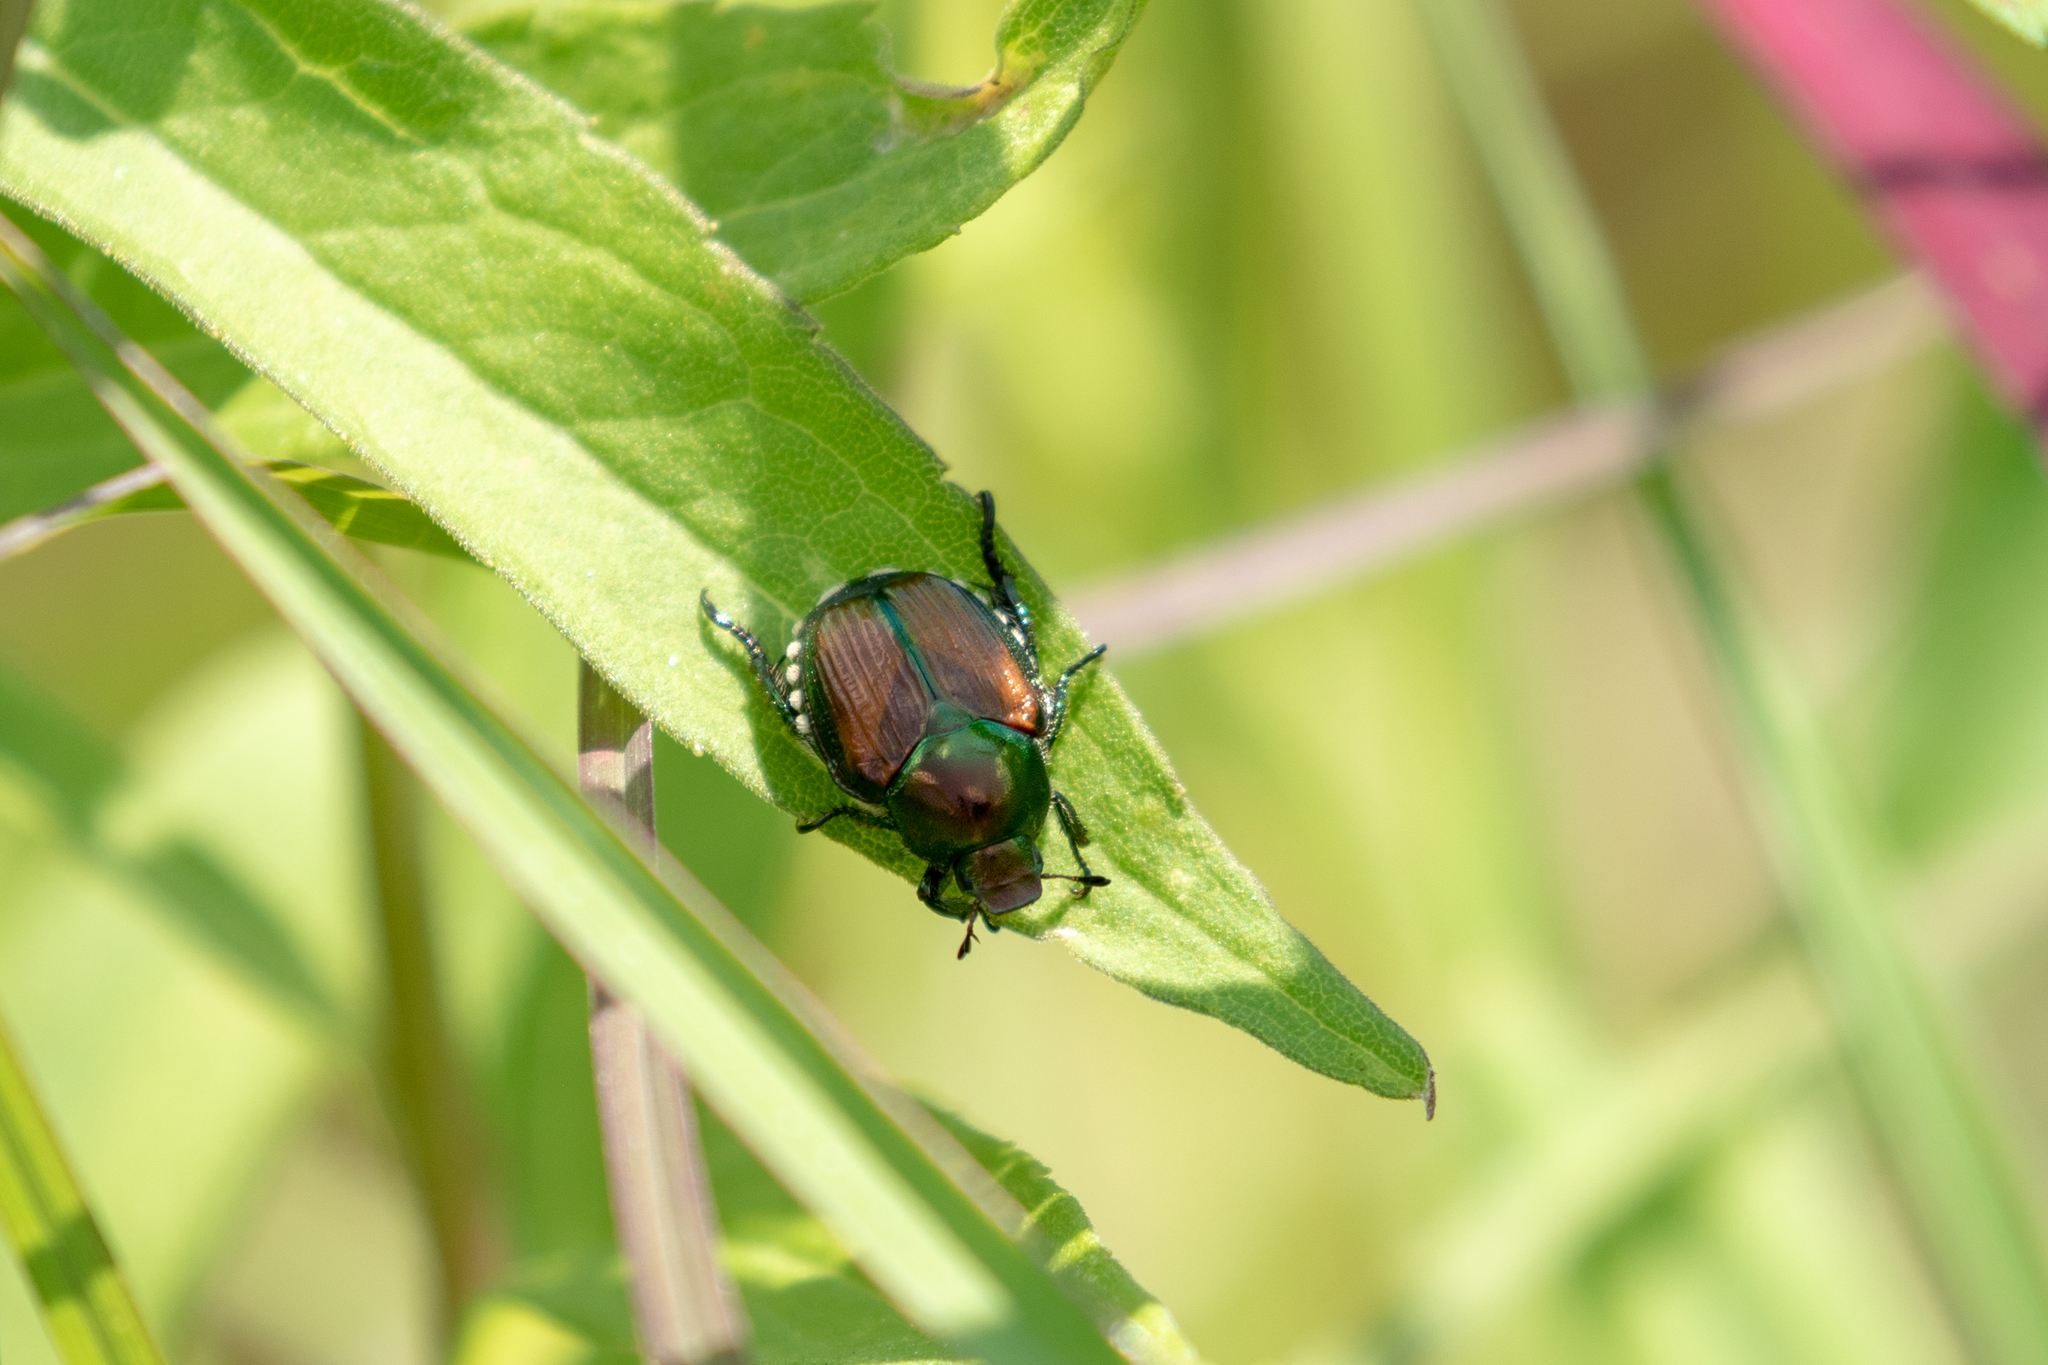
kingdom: Animalia
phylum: Arthropoda
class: Insecta
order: Coleoptera
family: Scarabaeidae
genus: Popillia
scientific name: Popillia japonica
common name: Japanese beetle
